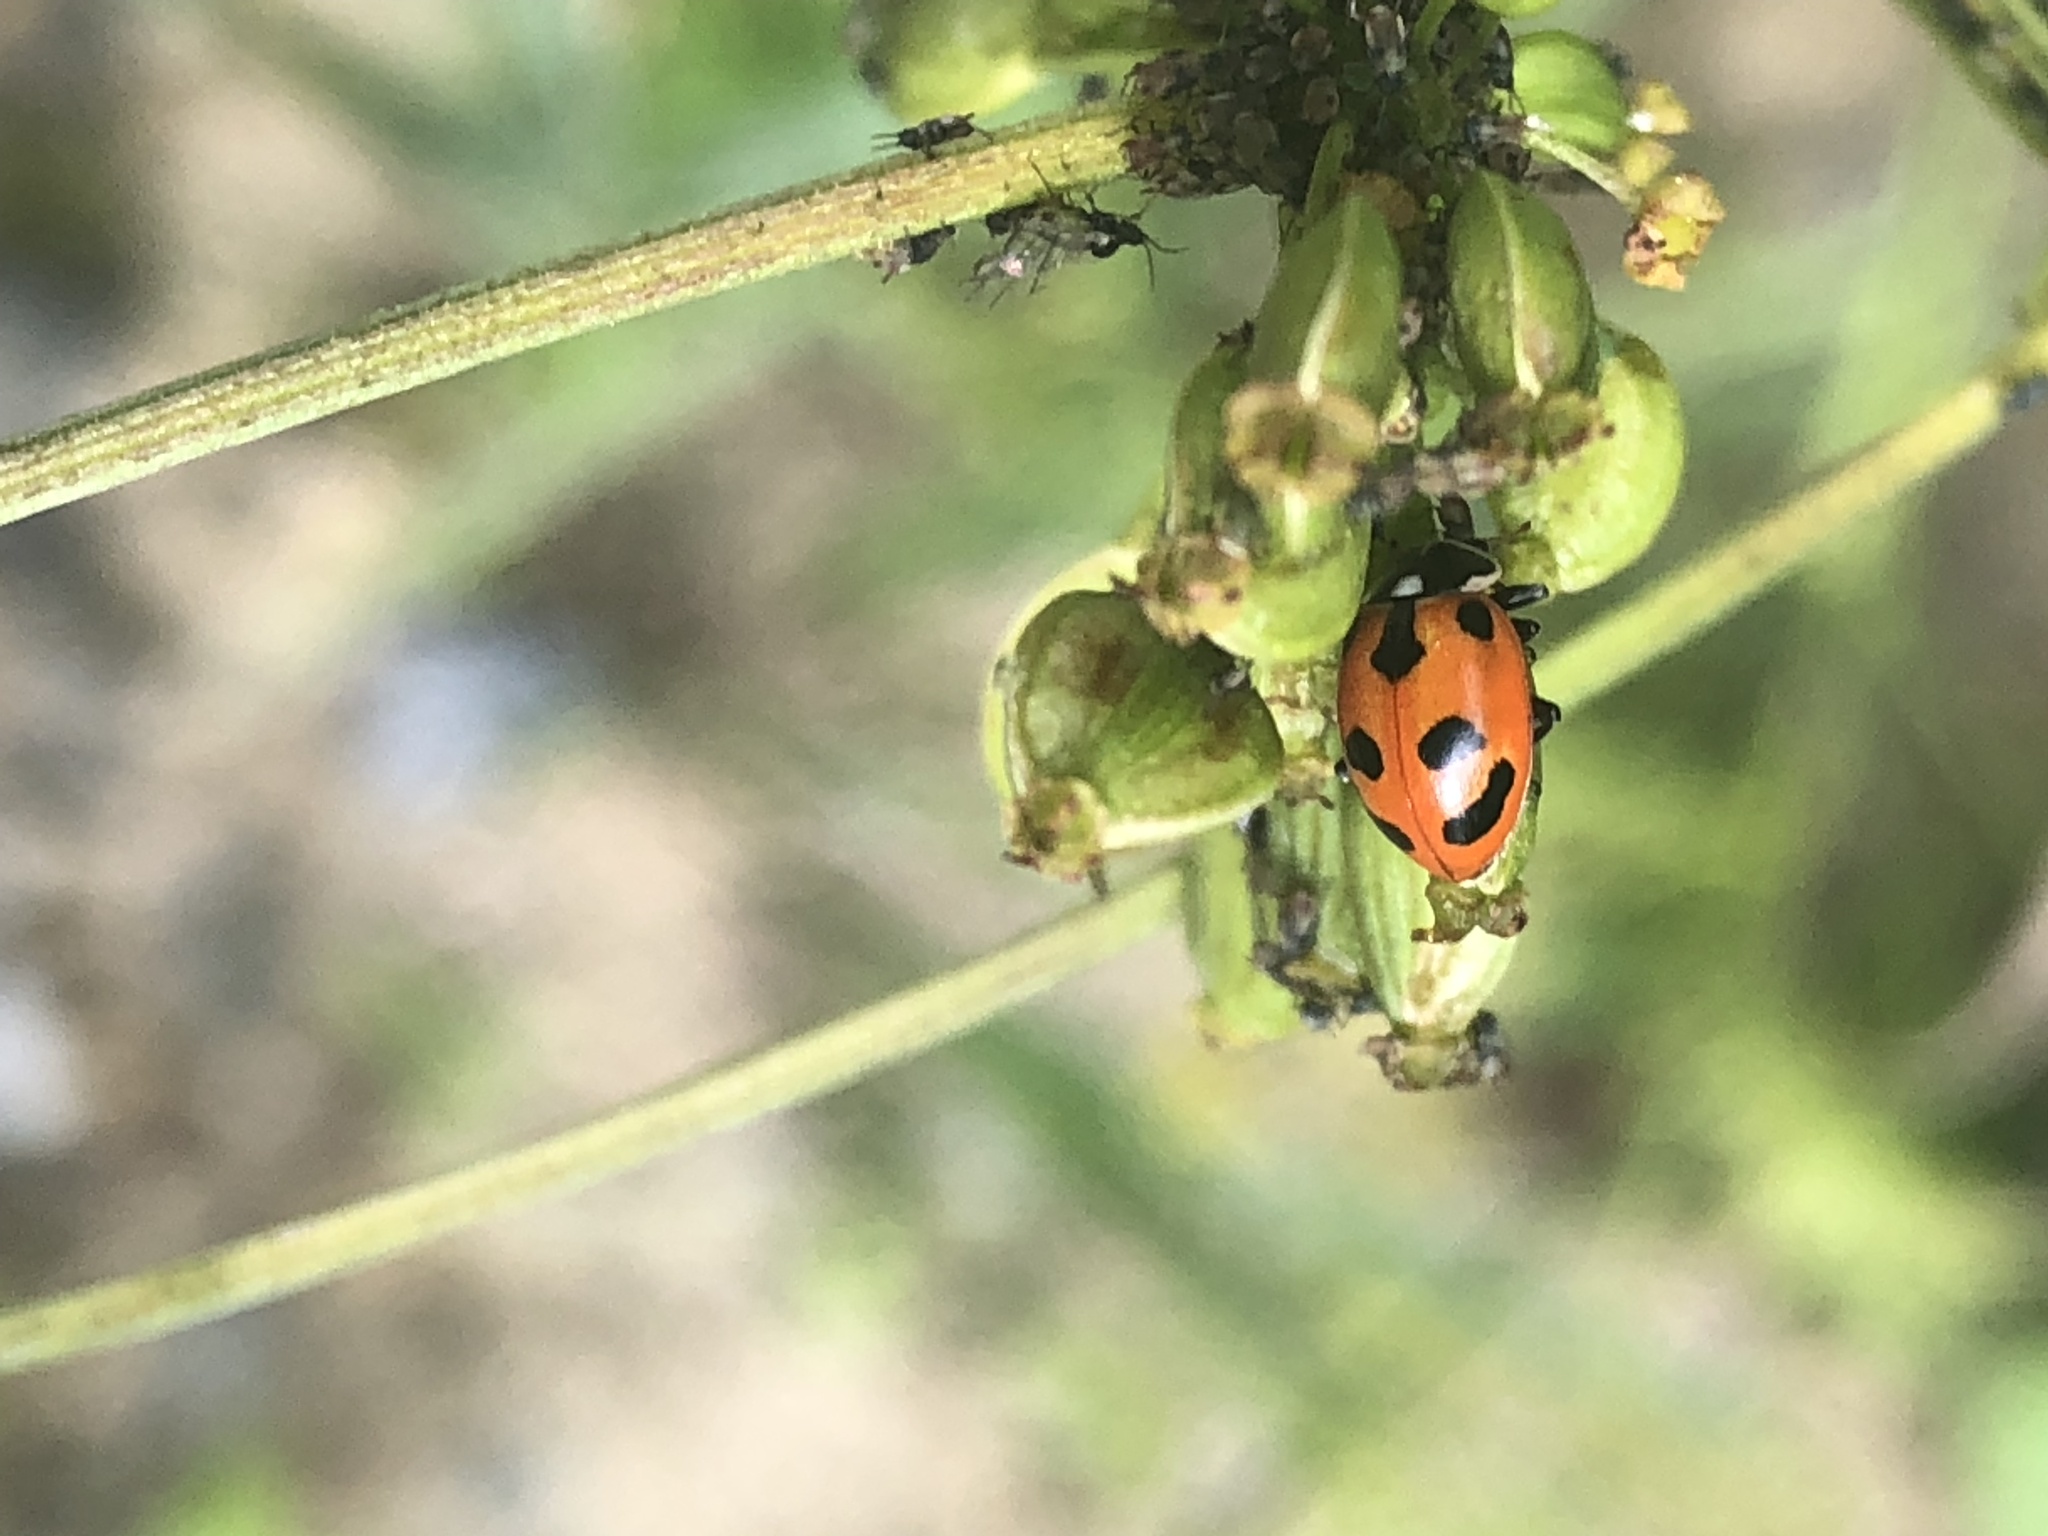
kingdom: Animalia
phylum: Arthropoda
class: Insecta
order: Coleoptera
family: Coccinellidae
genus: Hippodamia
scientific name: Hippodamia parenthesis
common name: Parenthesis lady beetle
